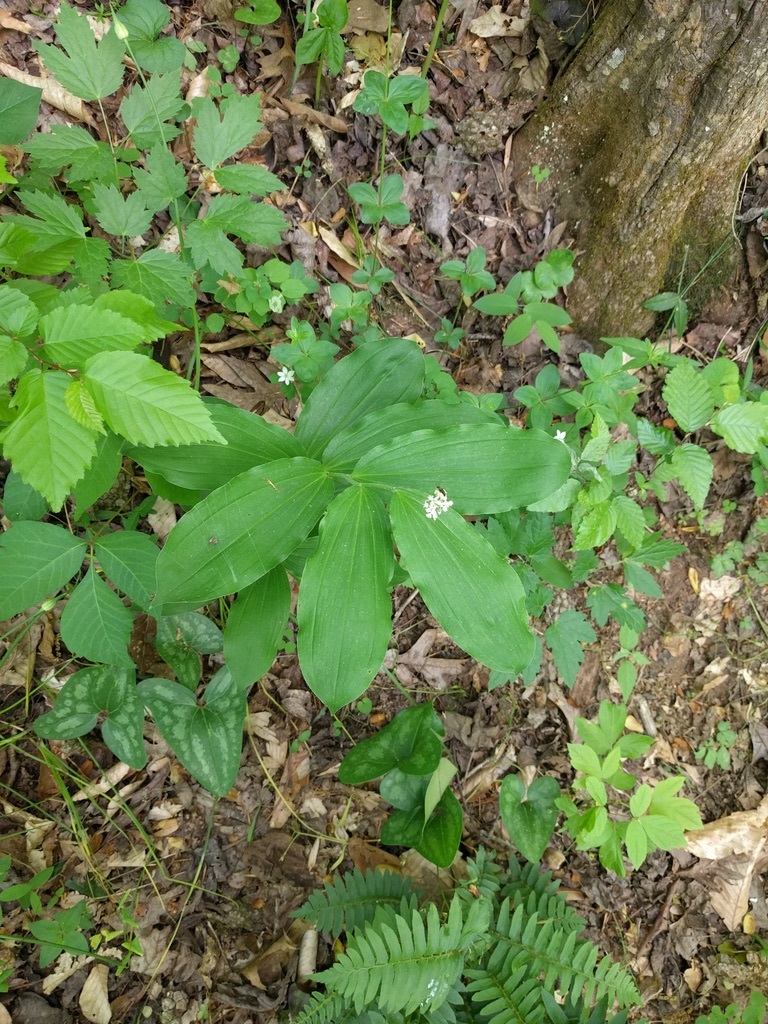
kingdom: Plantae
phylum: Tracheophyta
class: Liliopsida
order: Asparagales
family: Asparagaceae
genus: Maianthemum
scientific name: Maianthemum racemosum
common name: False spikenard
